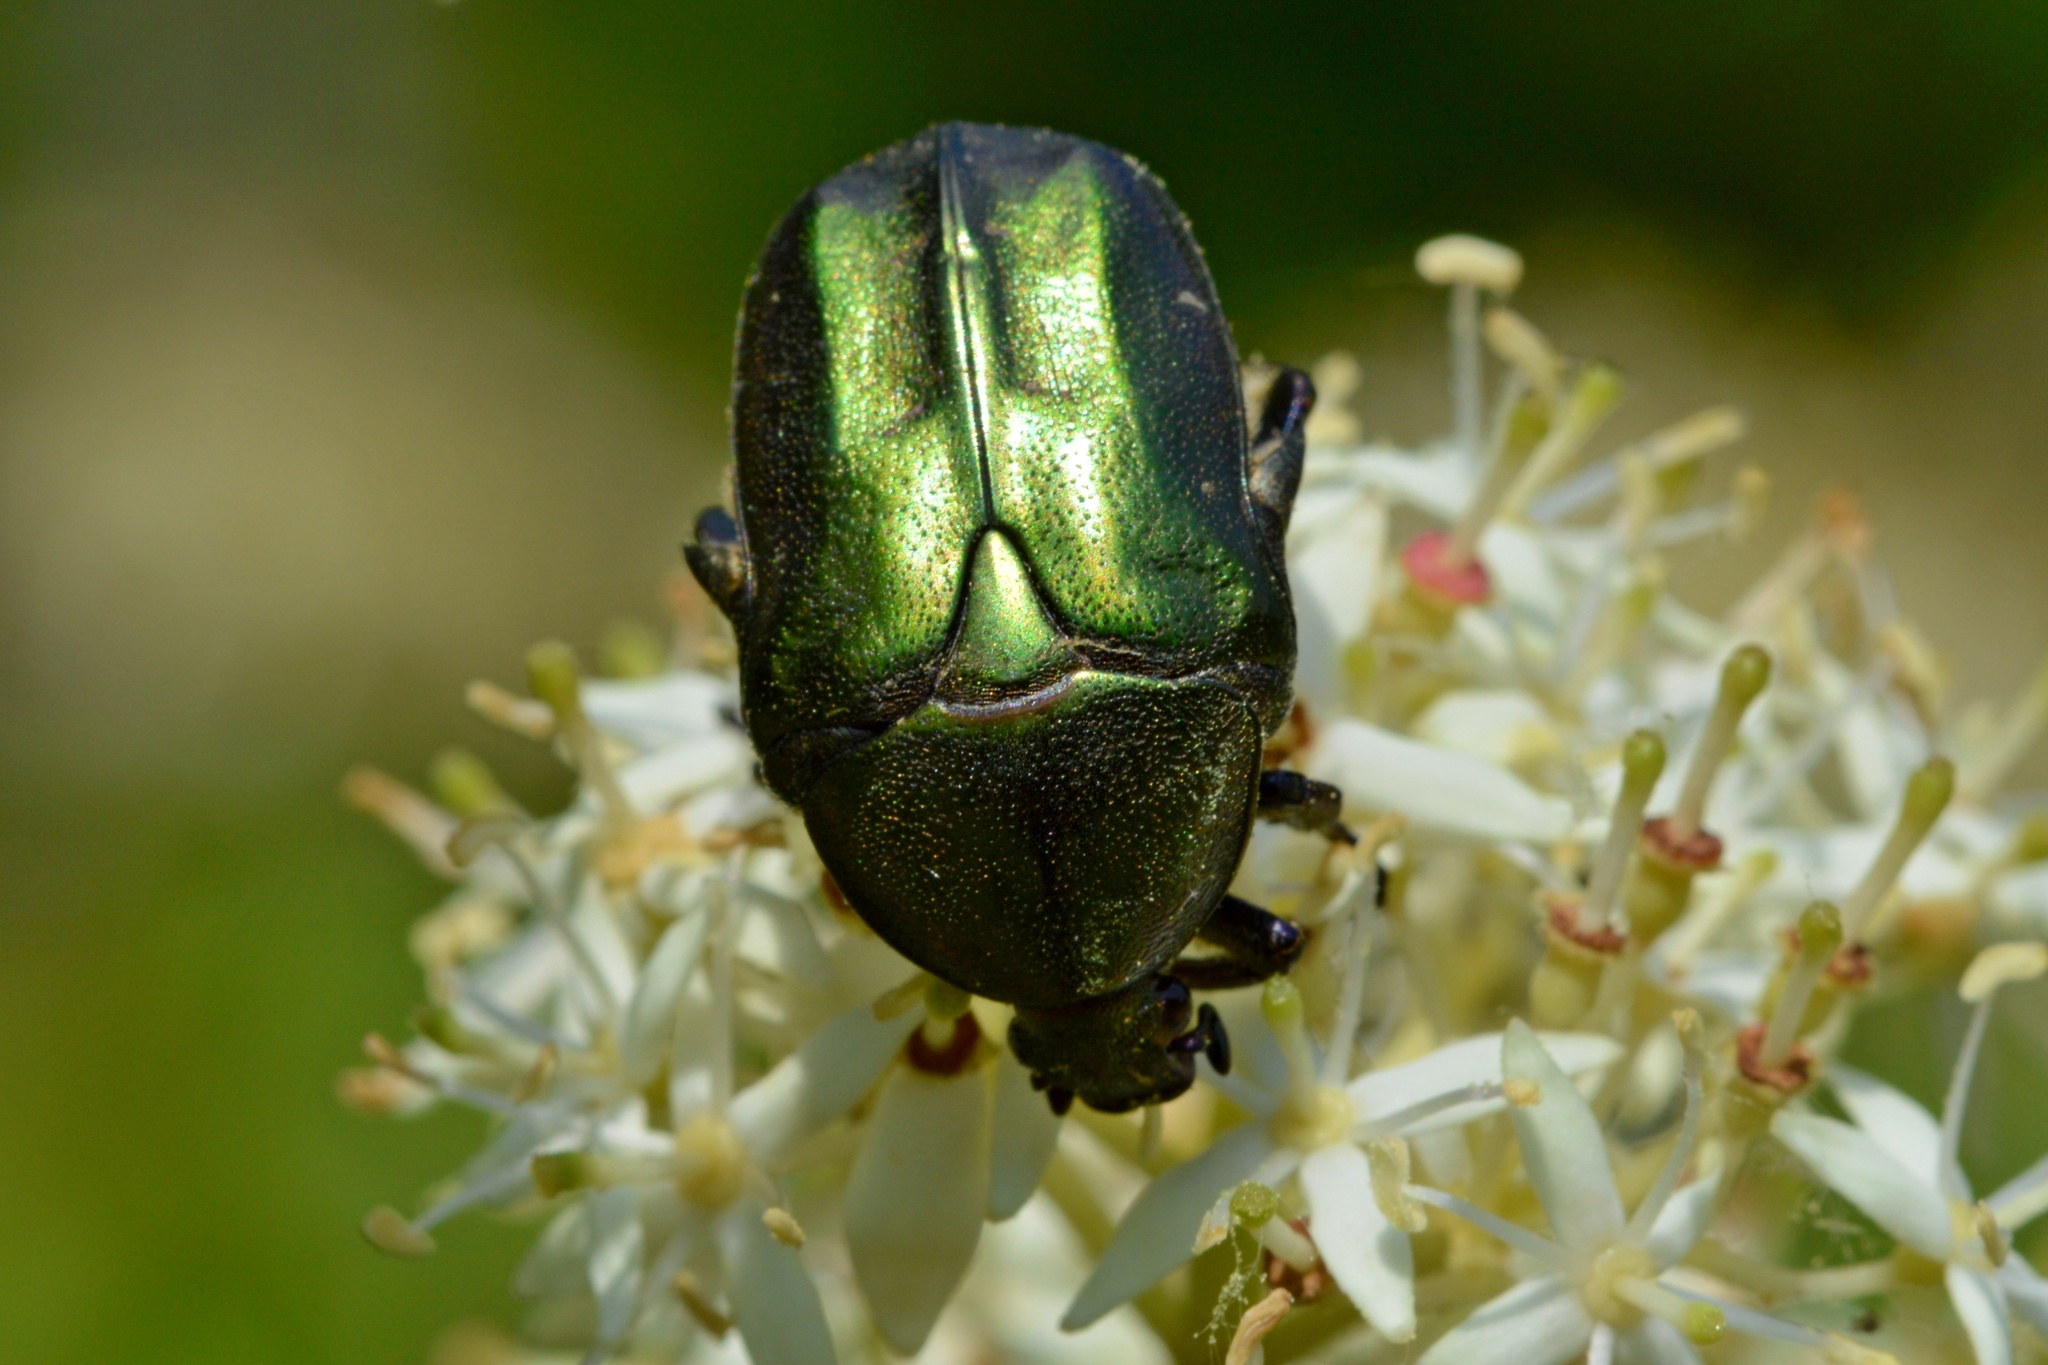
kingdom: Animalia
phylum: Arthropoda
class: Insecta
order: Coleoptera
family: Scarabaeidae
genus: Protaetia
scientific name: Protaetia cuprea
